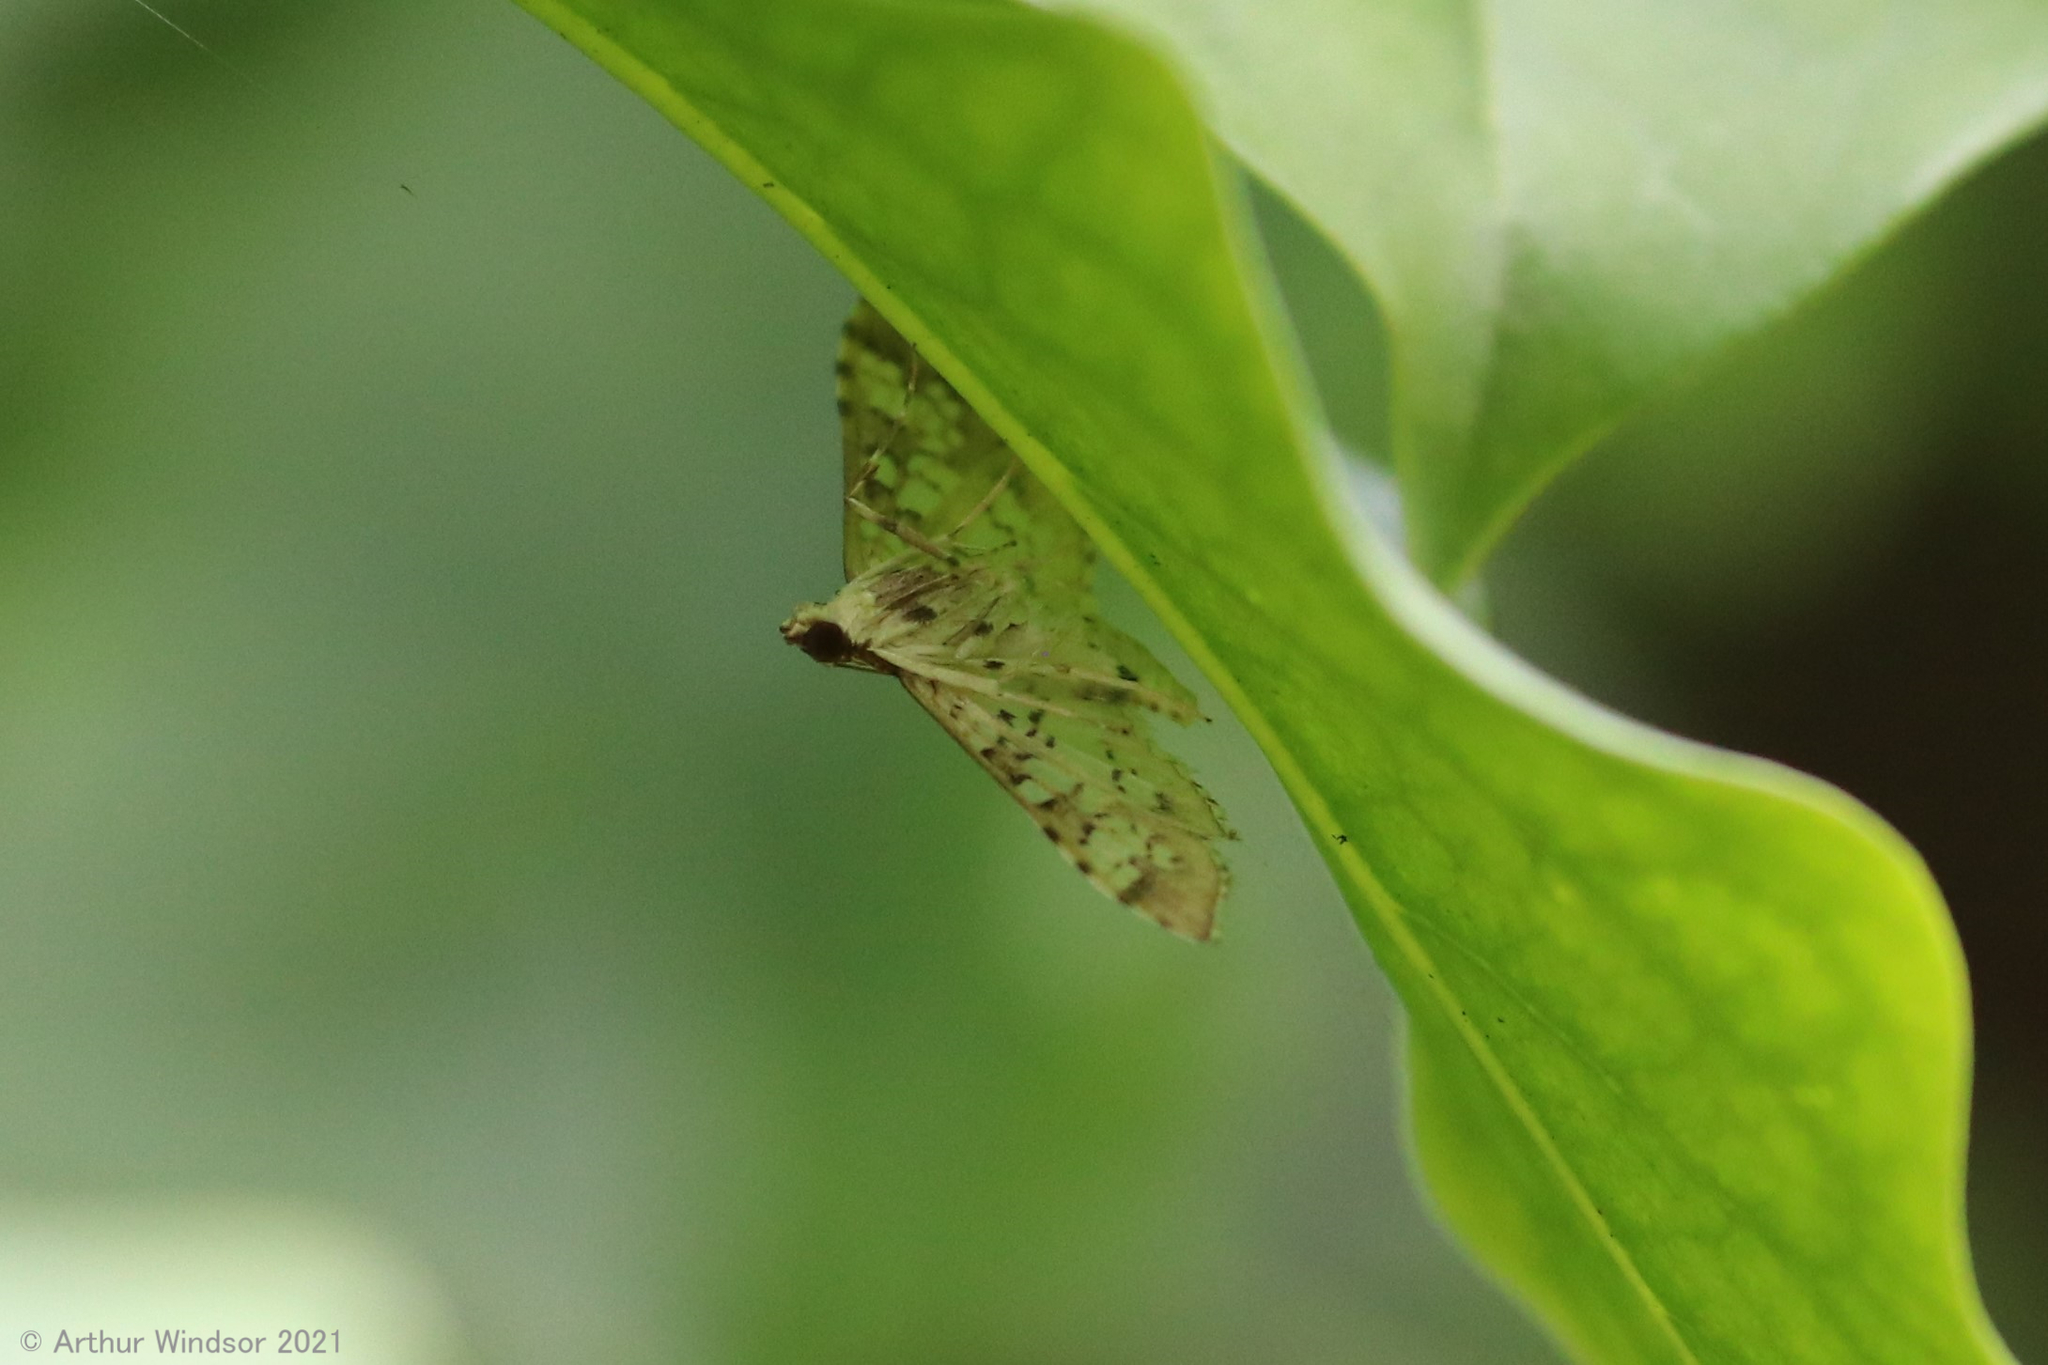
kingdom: Animalia
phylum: Arthropoda
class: Insecta
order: Lepidoptera
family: Crambidae
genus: Samea
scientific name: Samea ecclesialis
